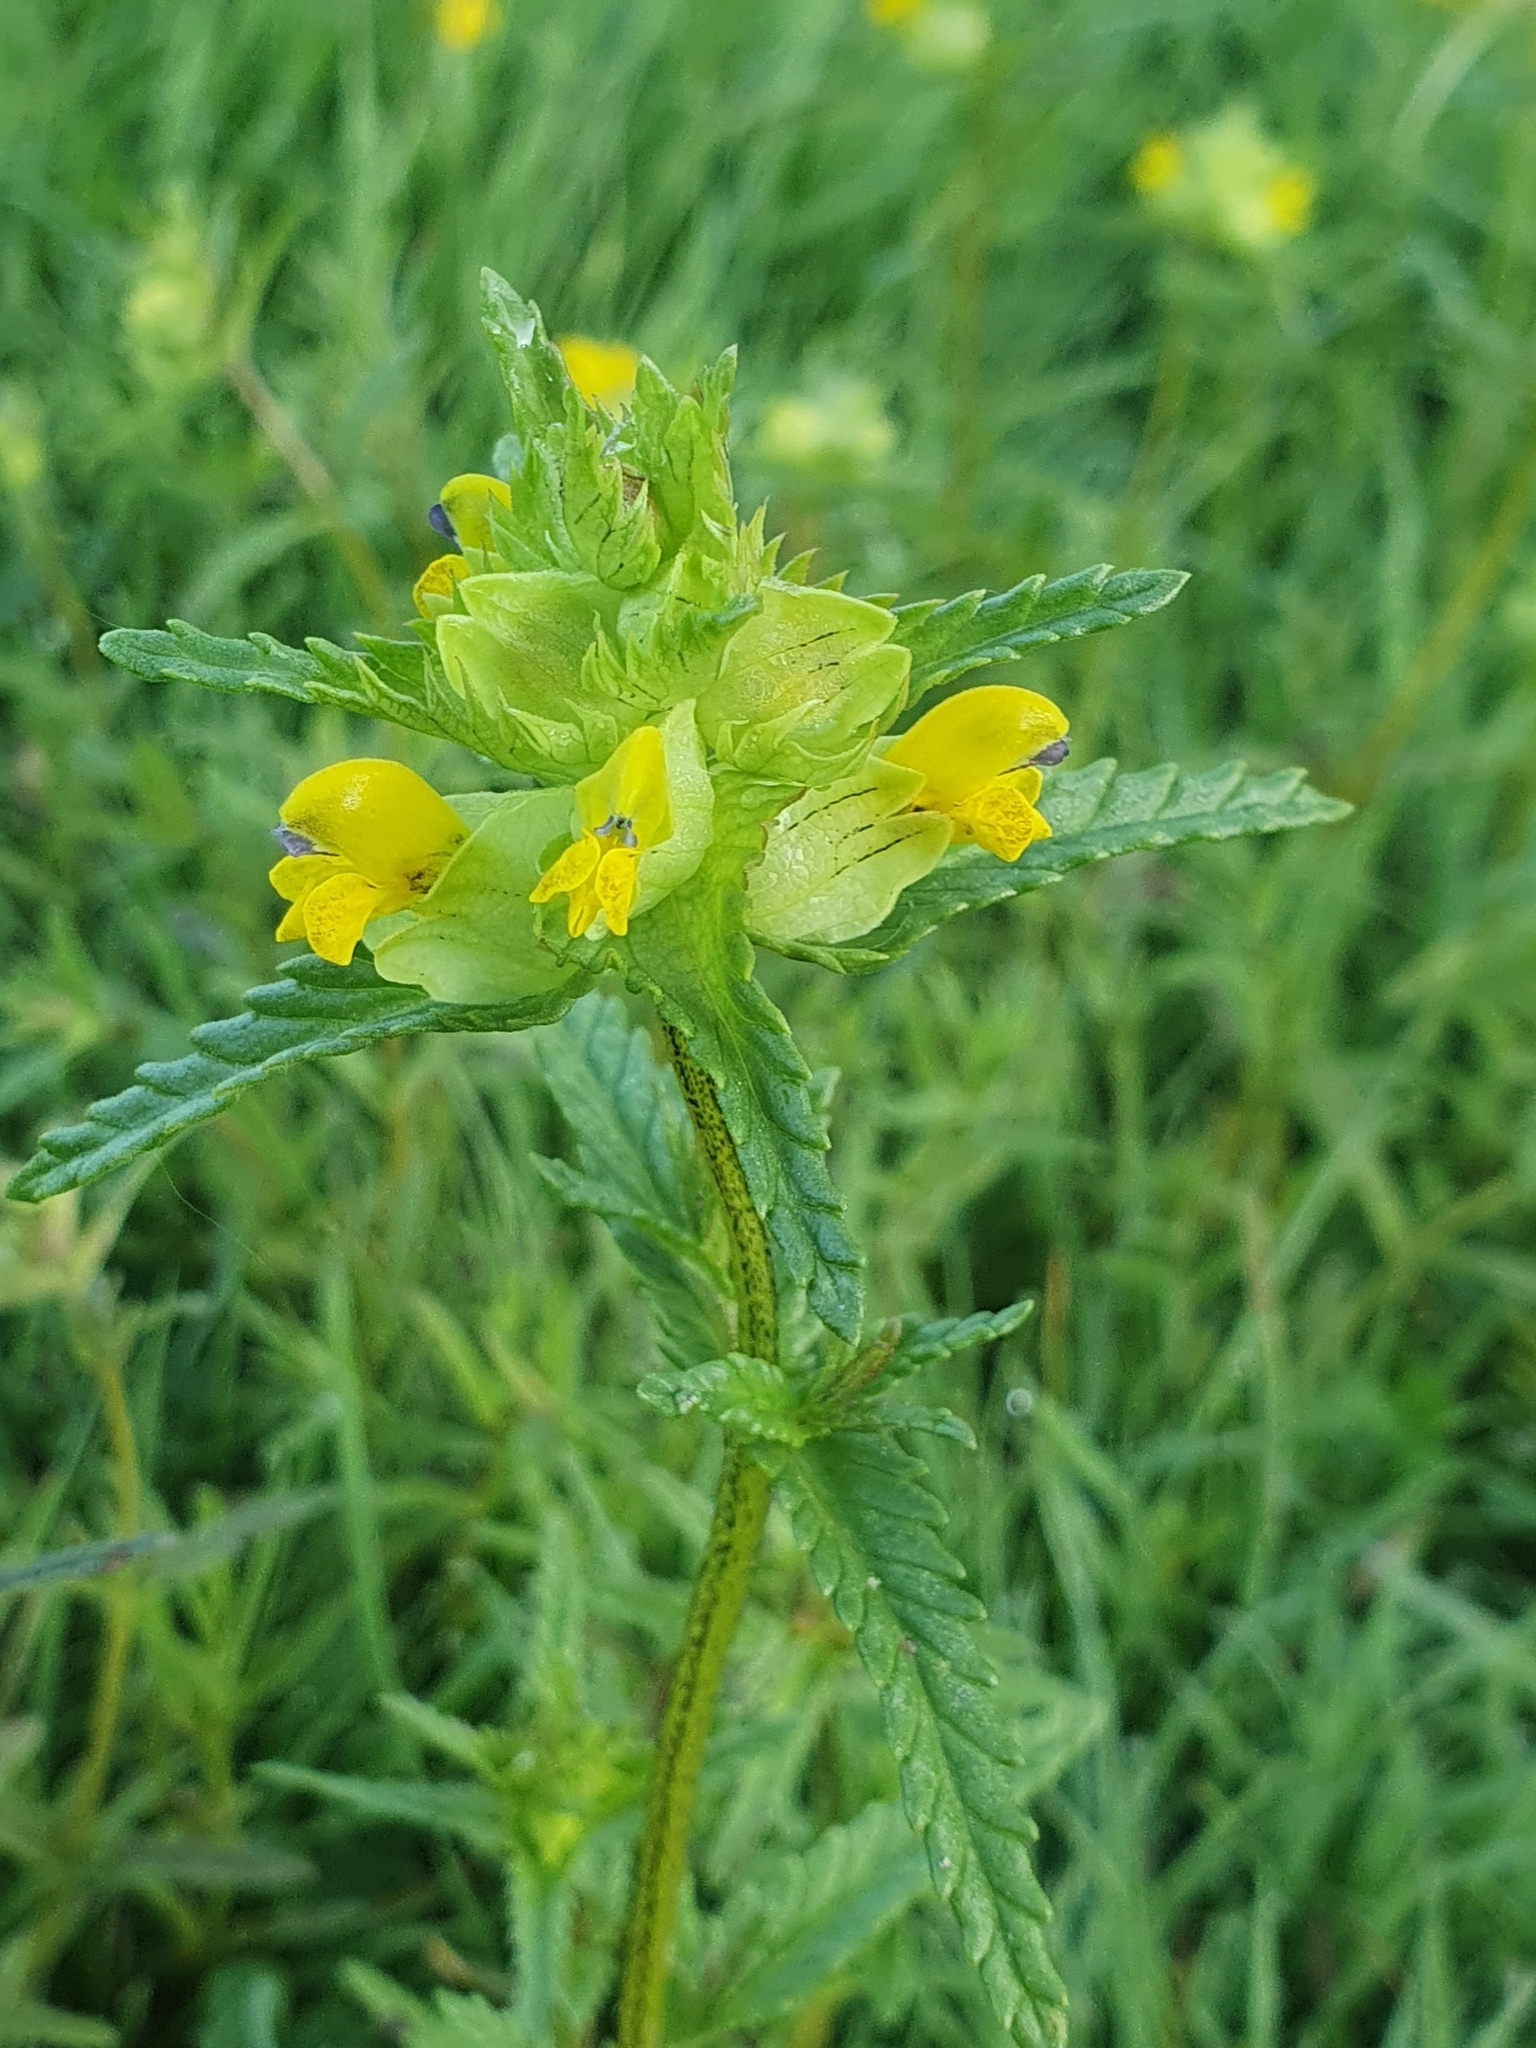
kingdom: Plantae
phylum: Tracheophyta
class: Magnoliopsida
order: Lamiales
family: Orobanchaceae
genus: Rhinanthus
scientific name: Rhinanthus minor
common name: Yellow-rattle
